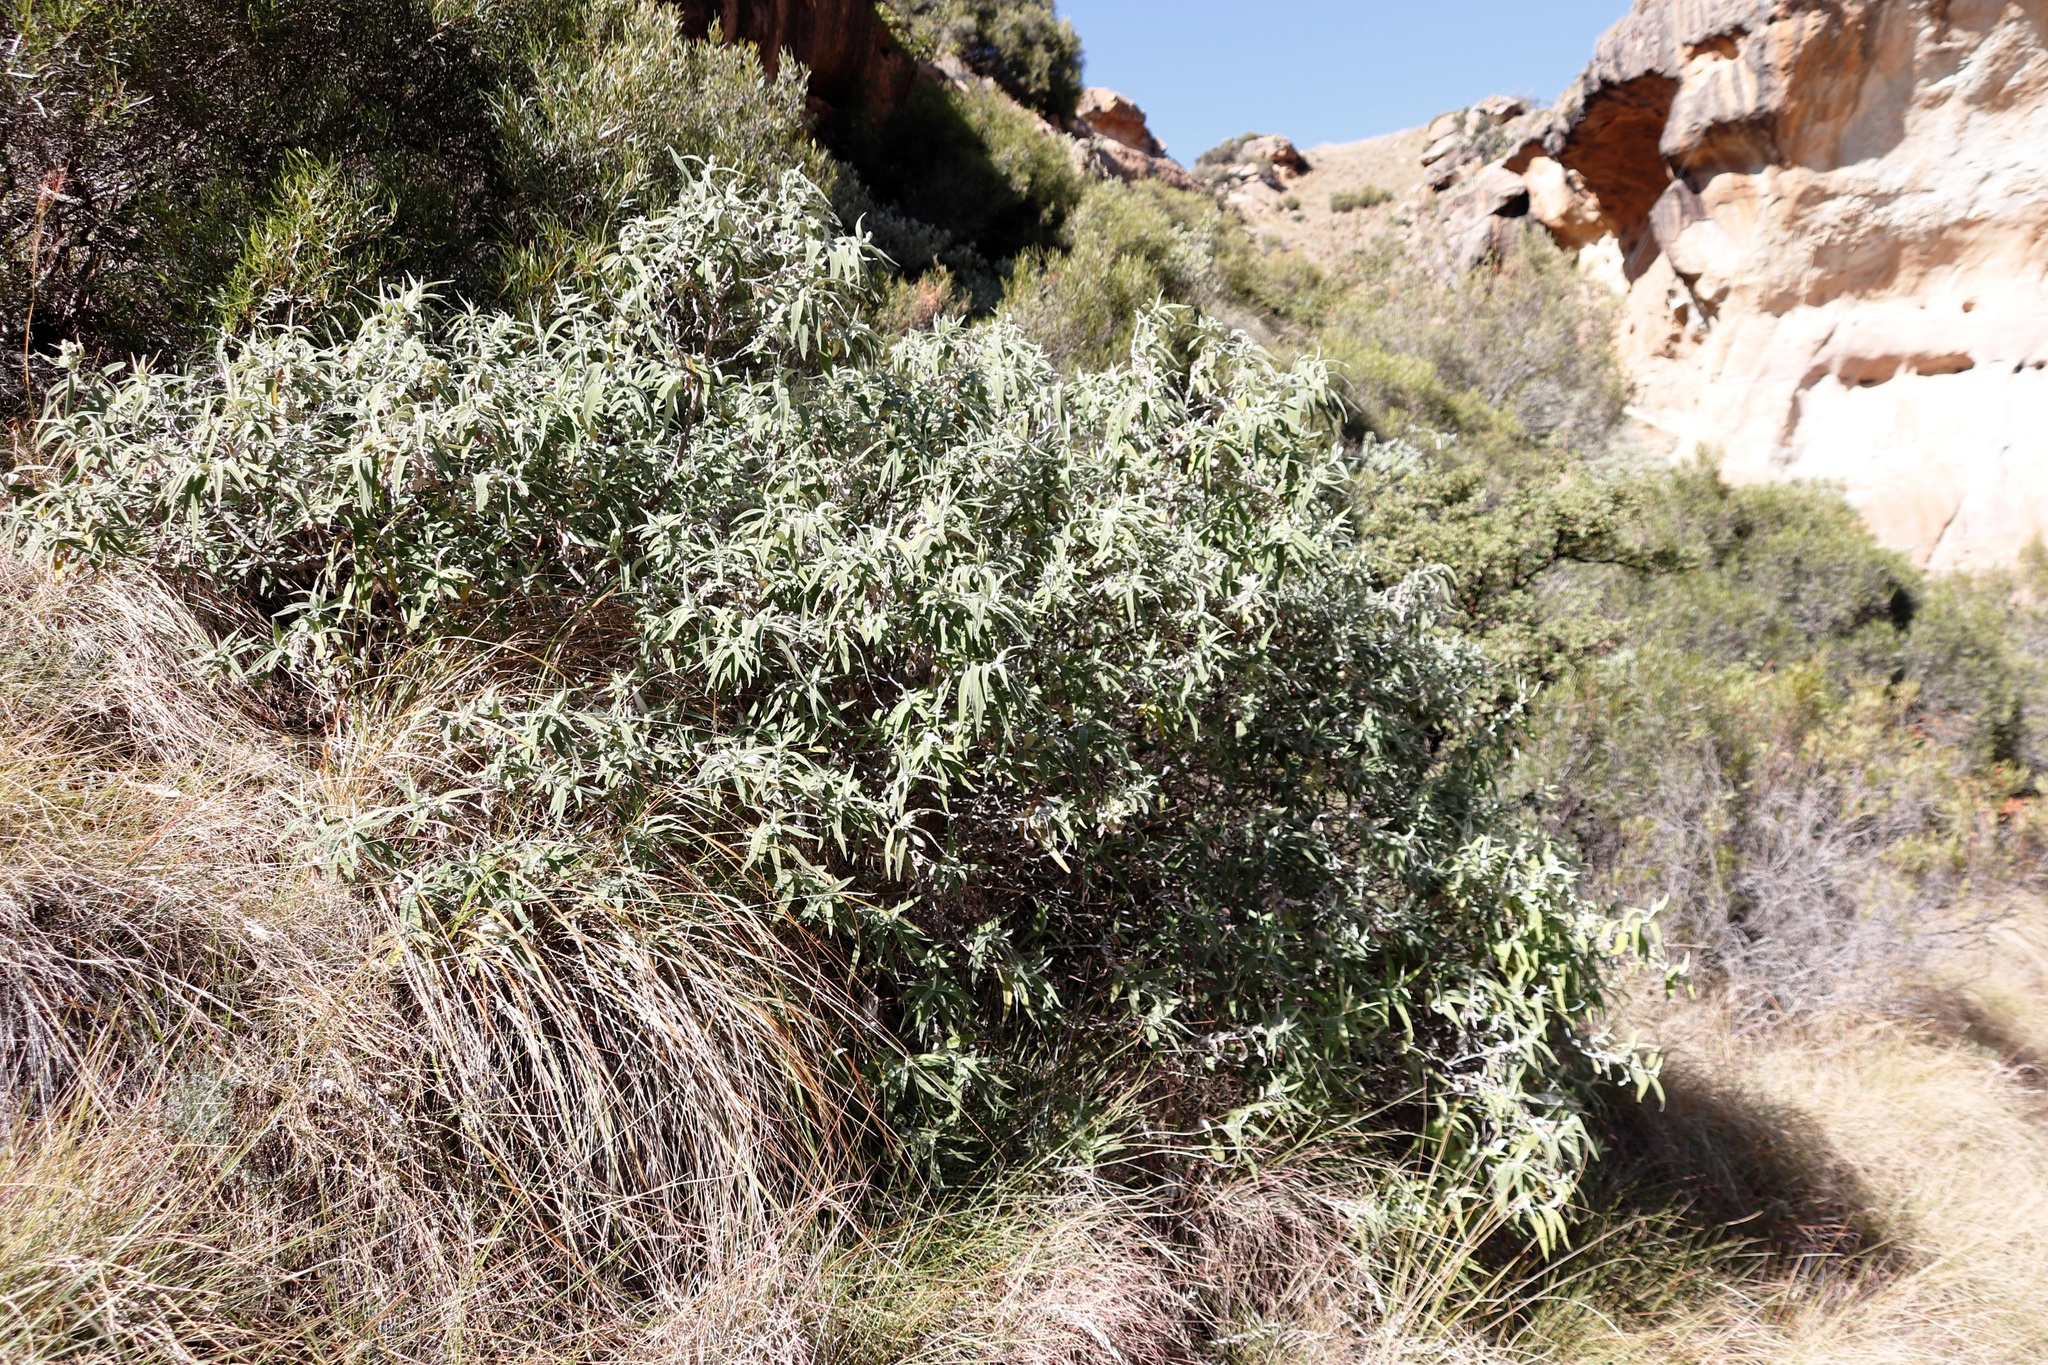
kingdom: Plantae
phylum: Tracheophyta
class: Magnoliopsida
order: Lamiales
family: Scrophulariaceae
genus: Buddleja
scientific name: Buddleja salviifolia
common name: Sagewood
